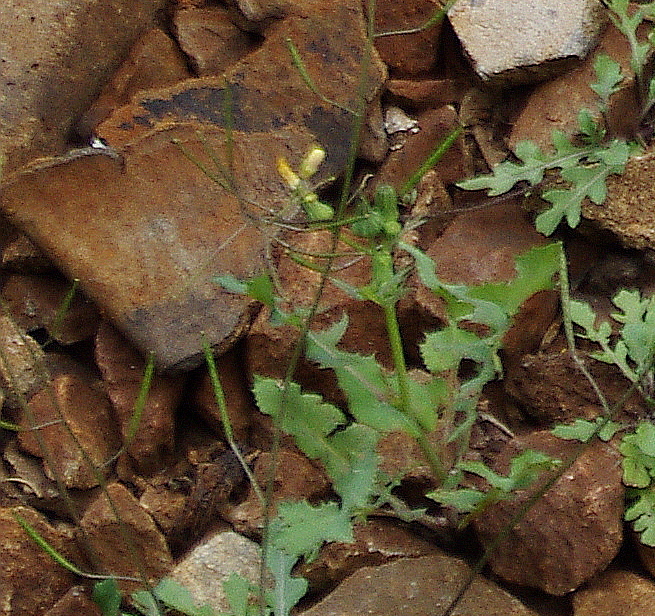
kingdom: Plantae
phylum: Tracheophyta
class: Magnoliopsida
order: Asterales
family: Asteraceae
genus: Sonchus
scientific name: Sonchus oleraceus
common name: Common sowthistle
